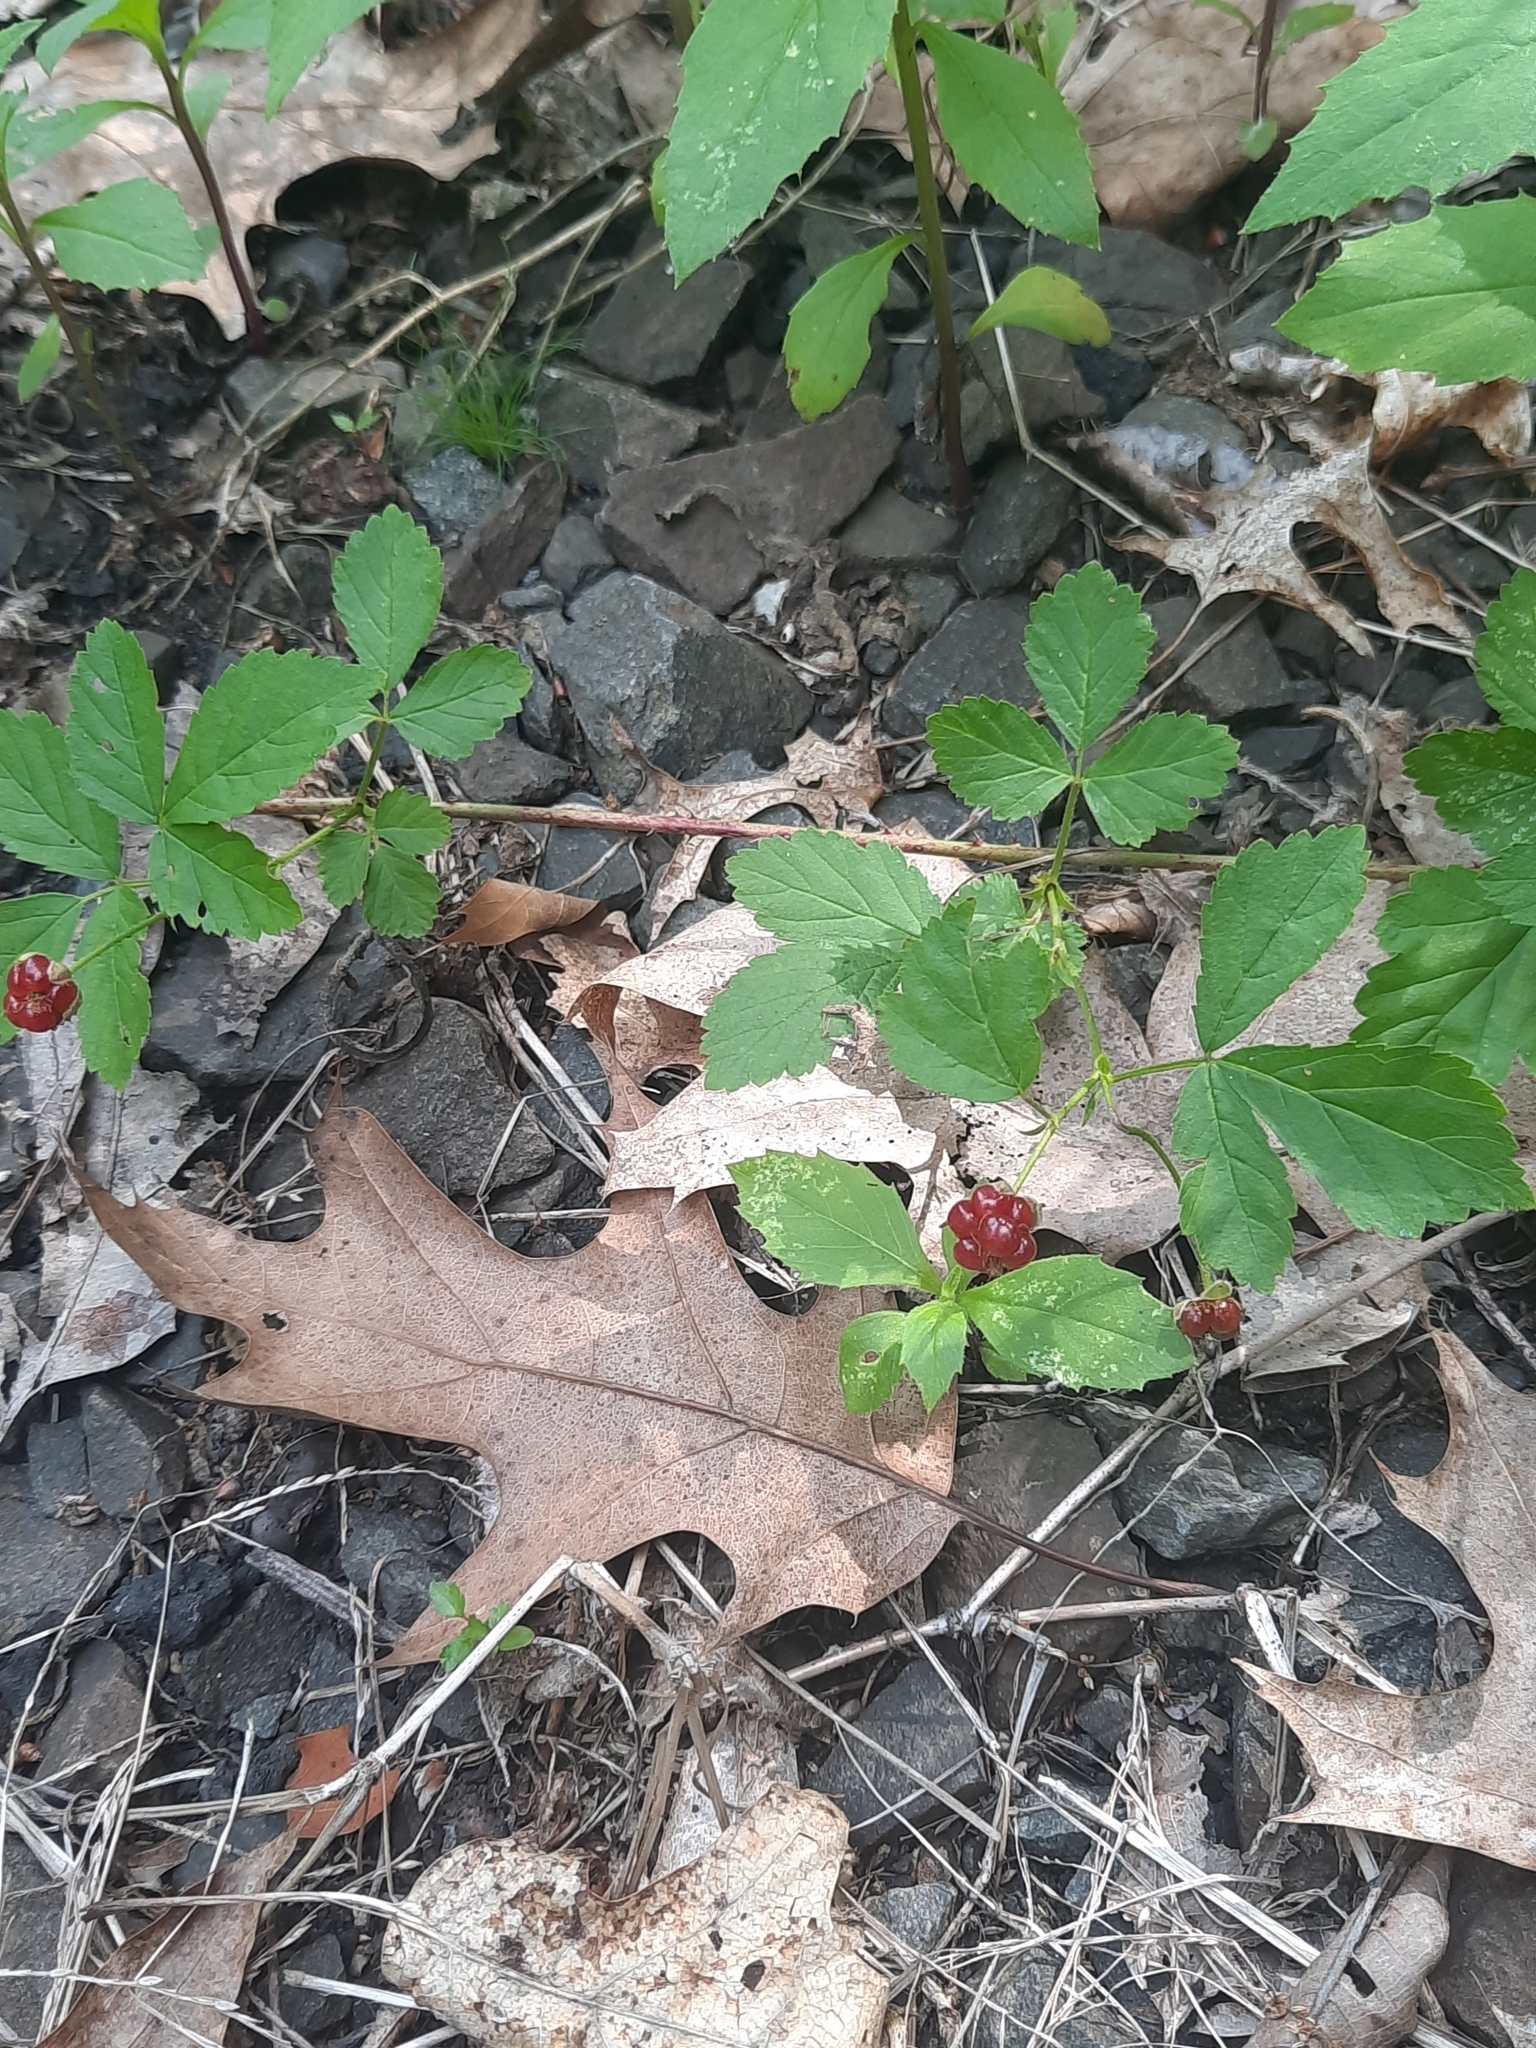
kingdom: Plantae
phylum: Tracheophyta
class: Magnoliopsida
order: Rosales
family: Rosaceae
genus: Rubus
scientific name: Rubus flagellaris
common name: American dewberry
